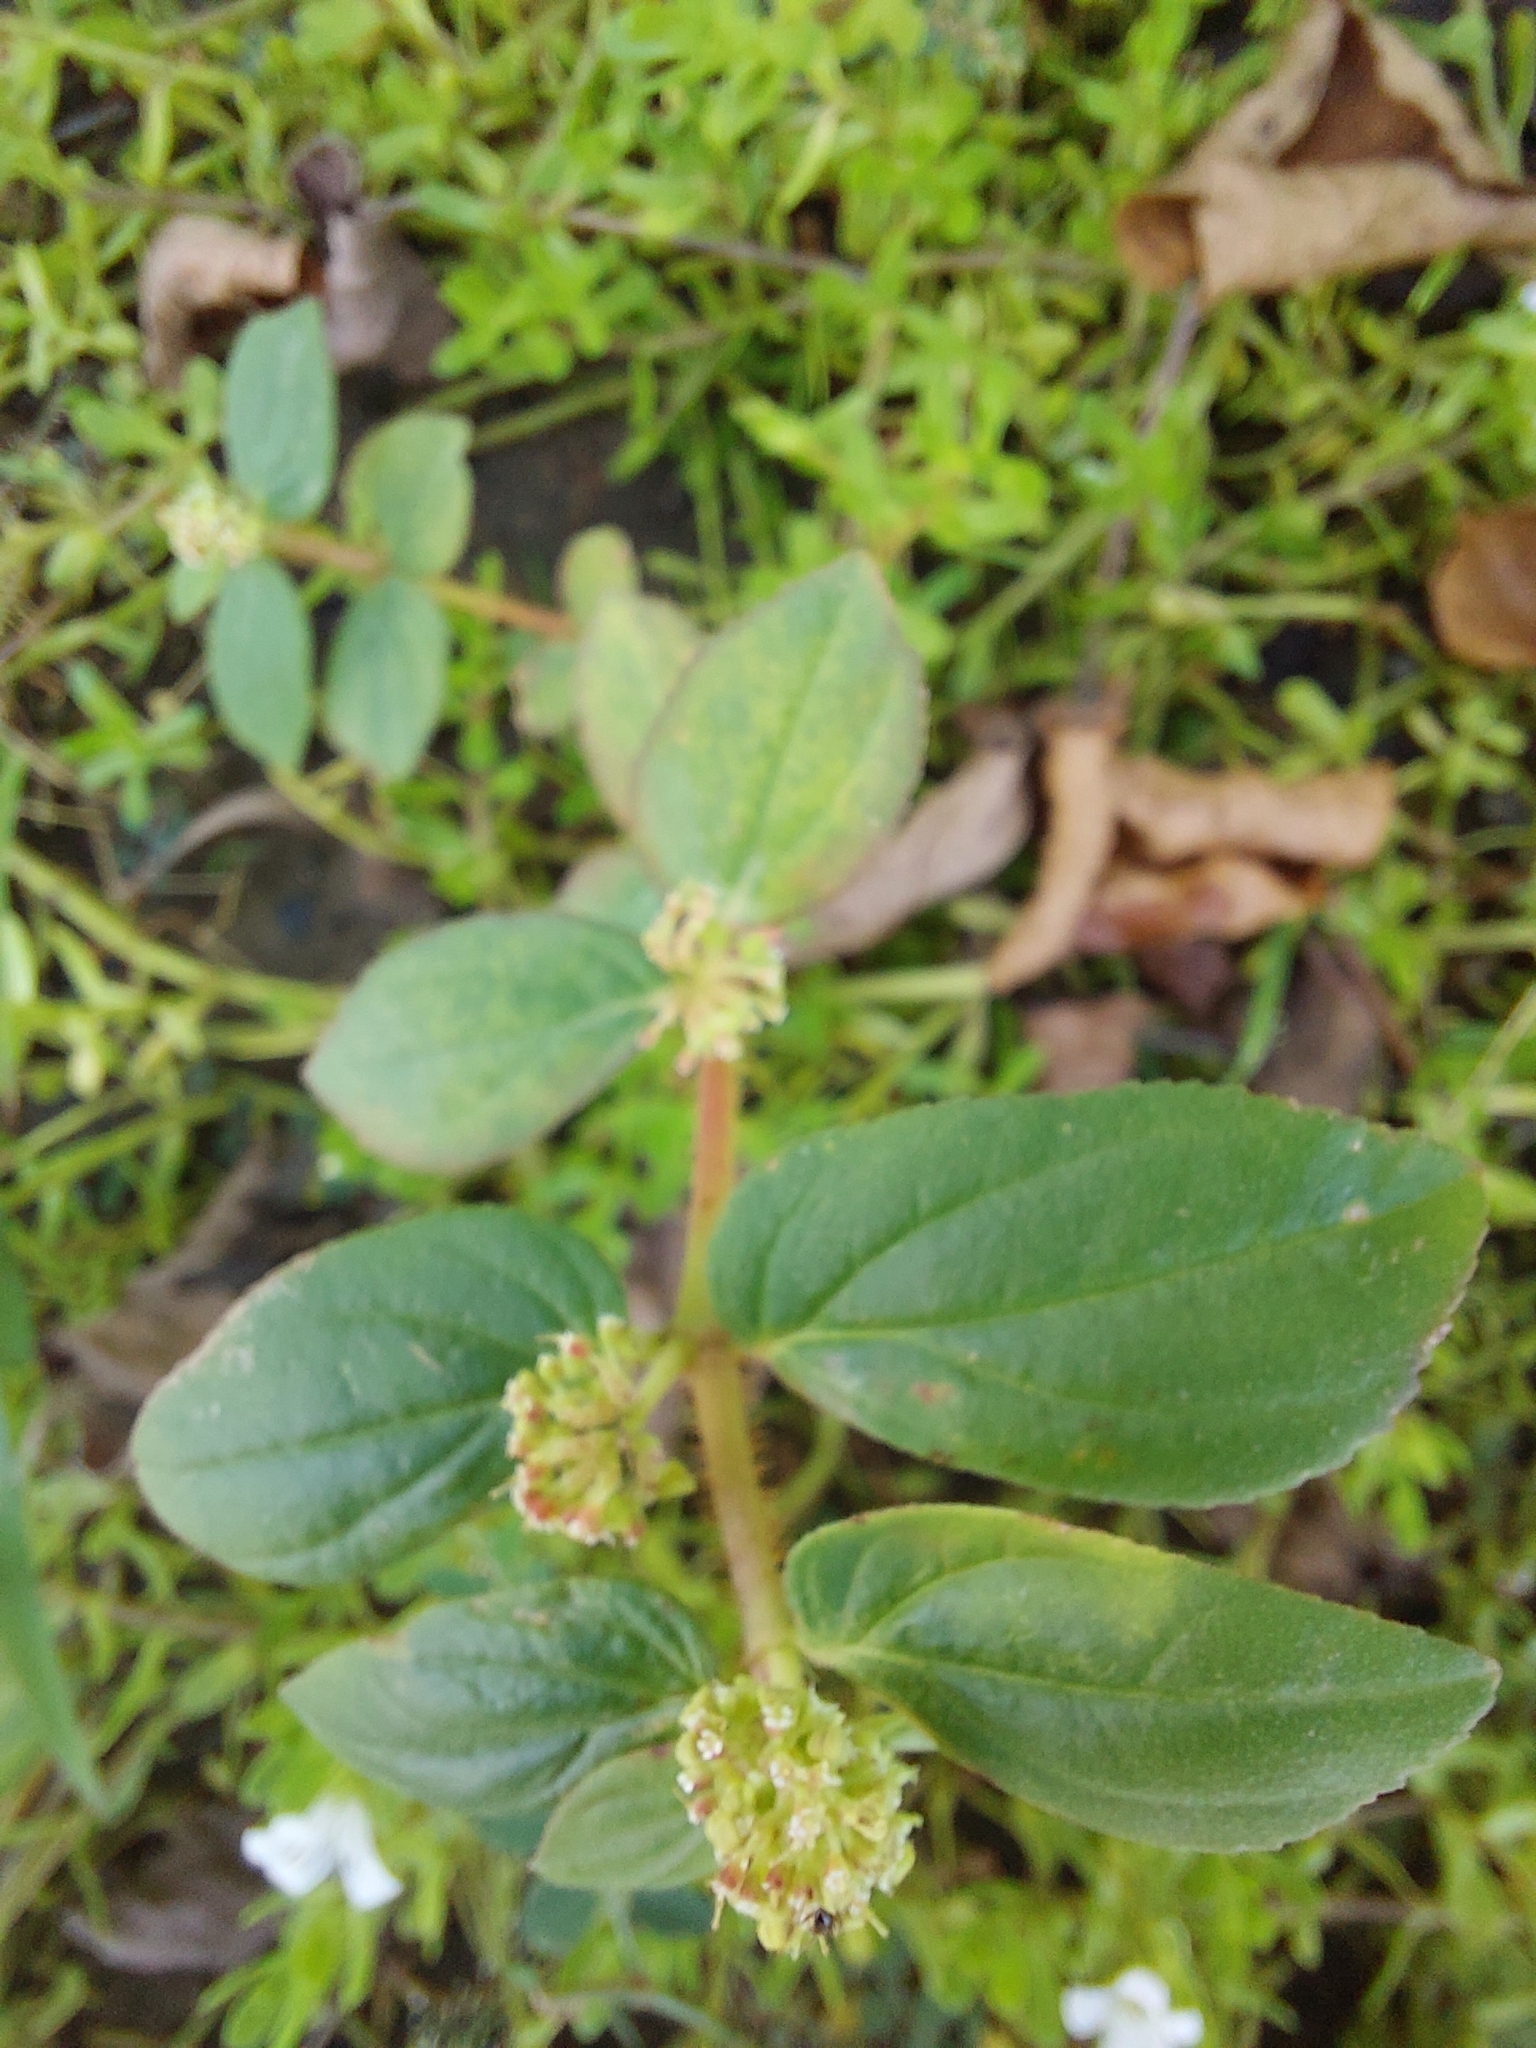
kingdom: Plantae
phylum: Tracheophyta
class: Magnoliopsida
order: Malpighiales
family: Euphorbiaceae
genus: Euphorbia
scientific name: Euphorbia hirta
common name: Pillpod sandmat
